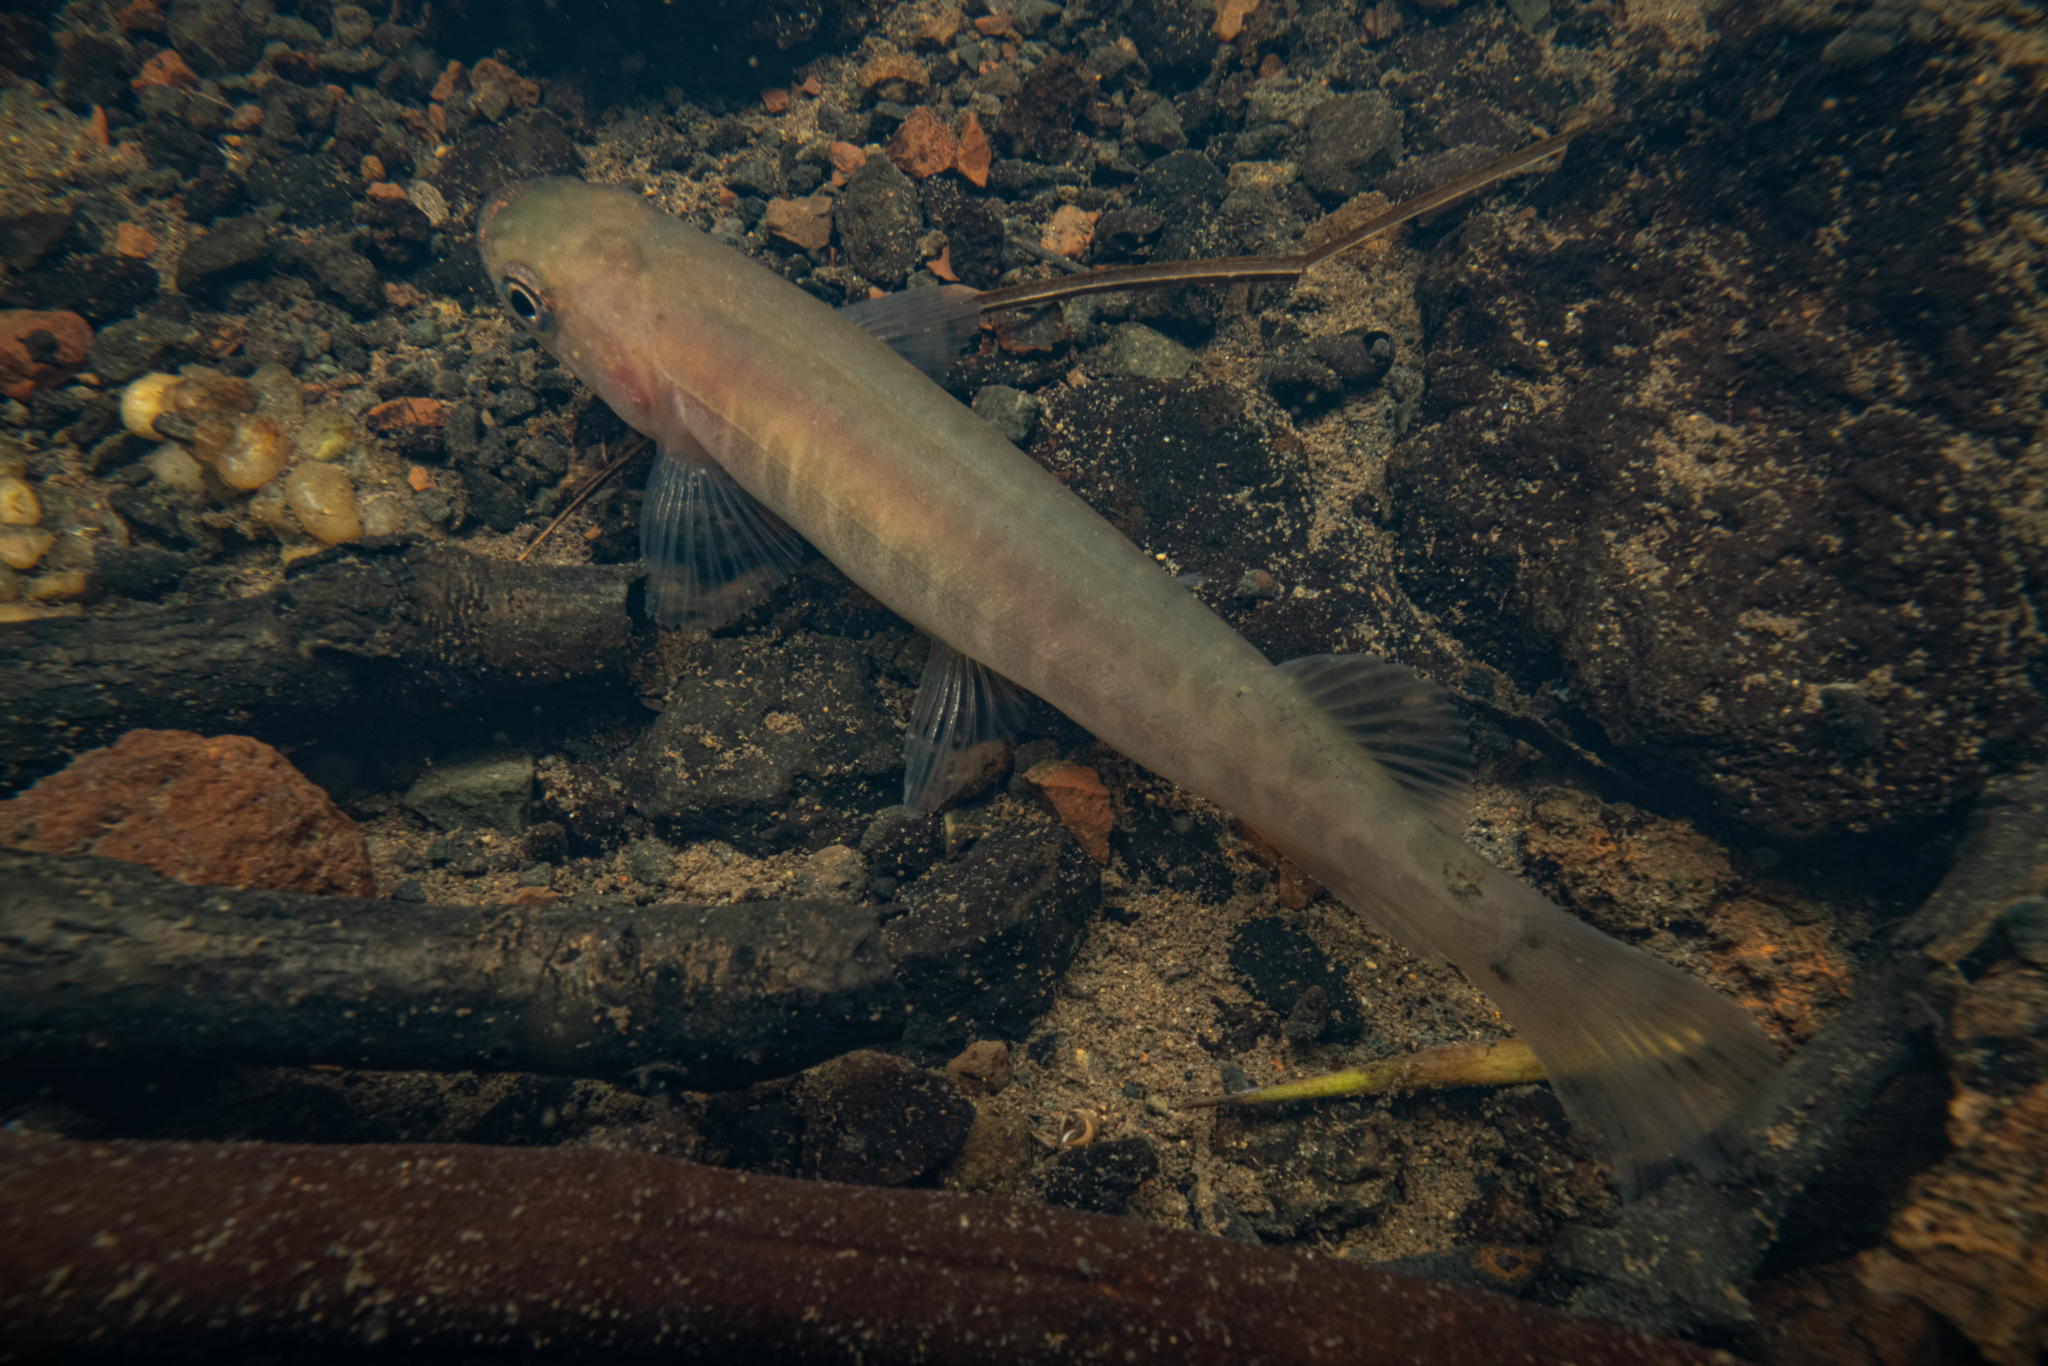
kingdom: Animalia
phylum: Chordata
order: Osmeriformes
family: Galaxiidae
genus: Galaxias
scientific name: Galaxias fasciatus
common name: Banded kokopu
